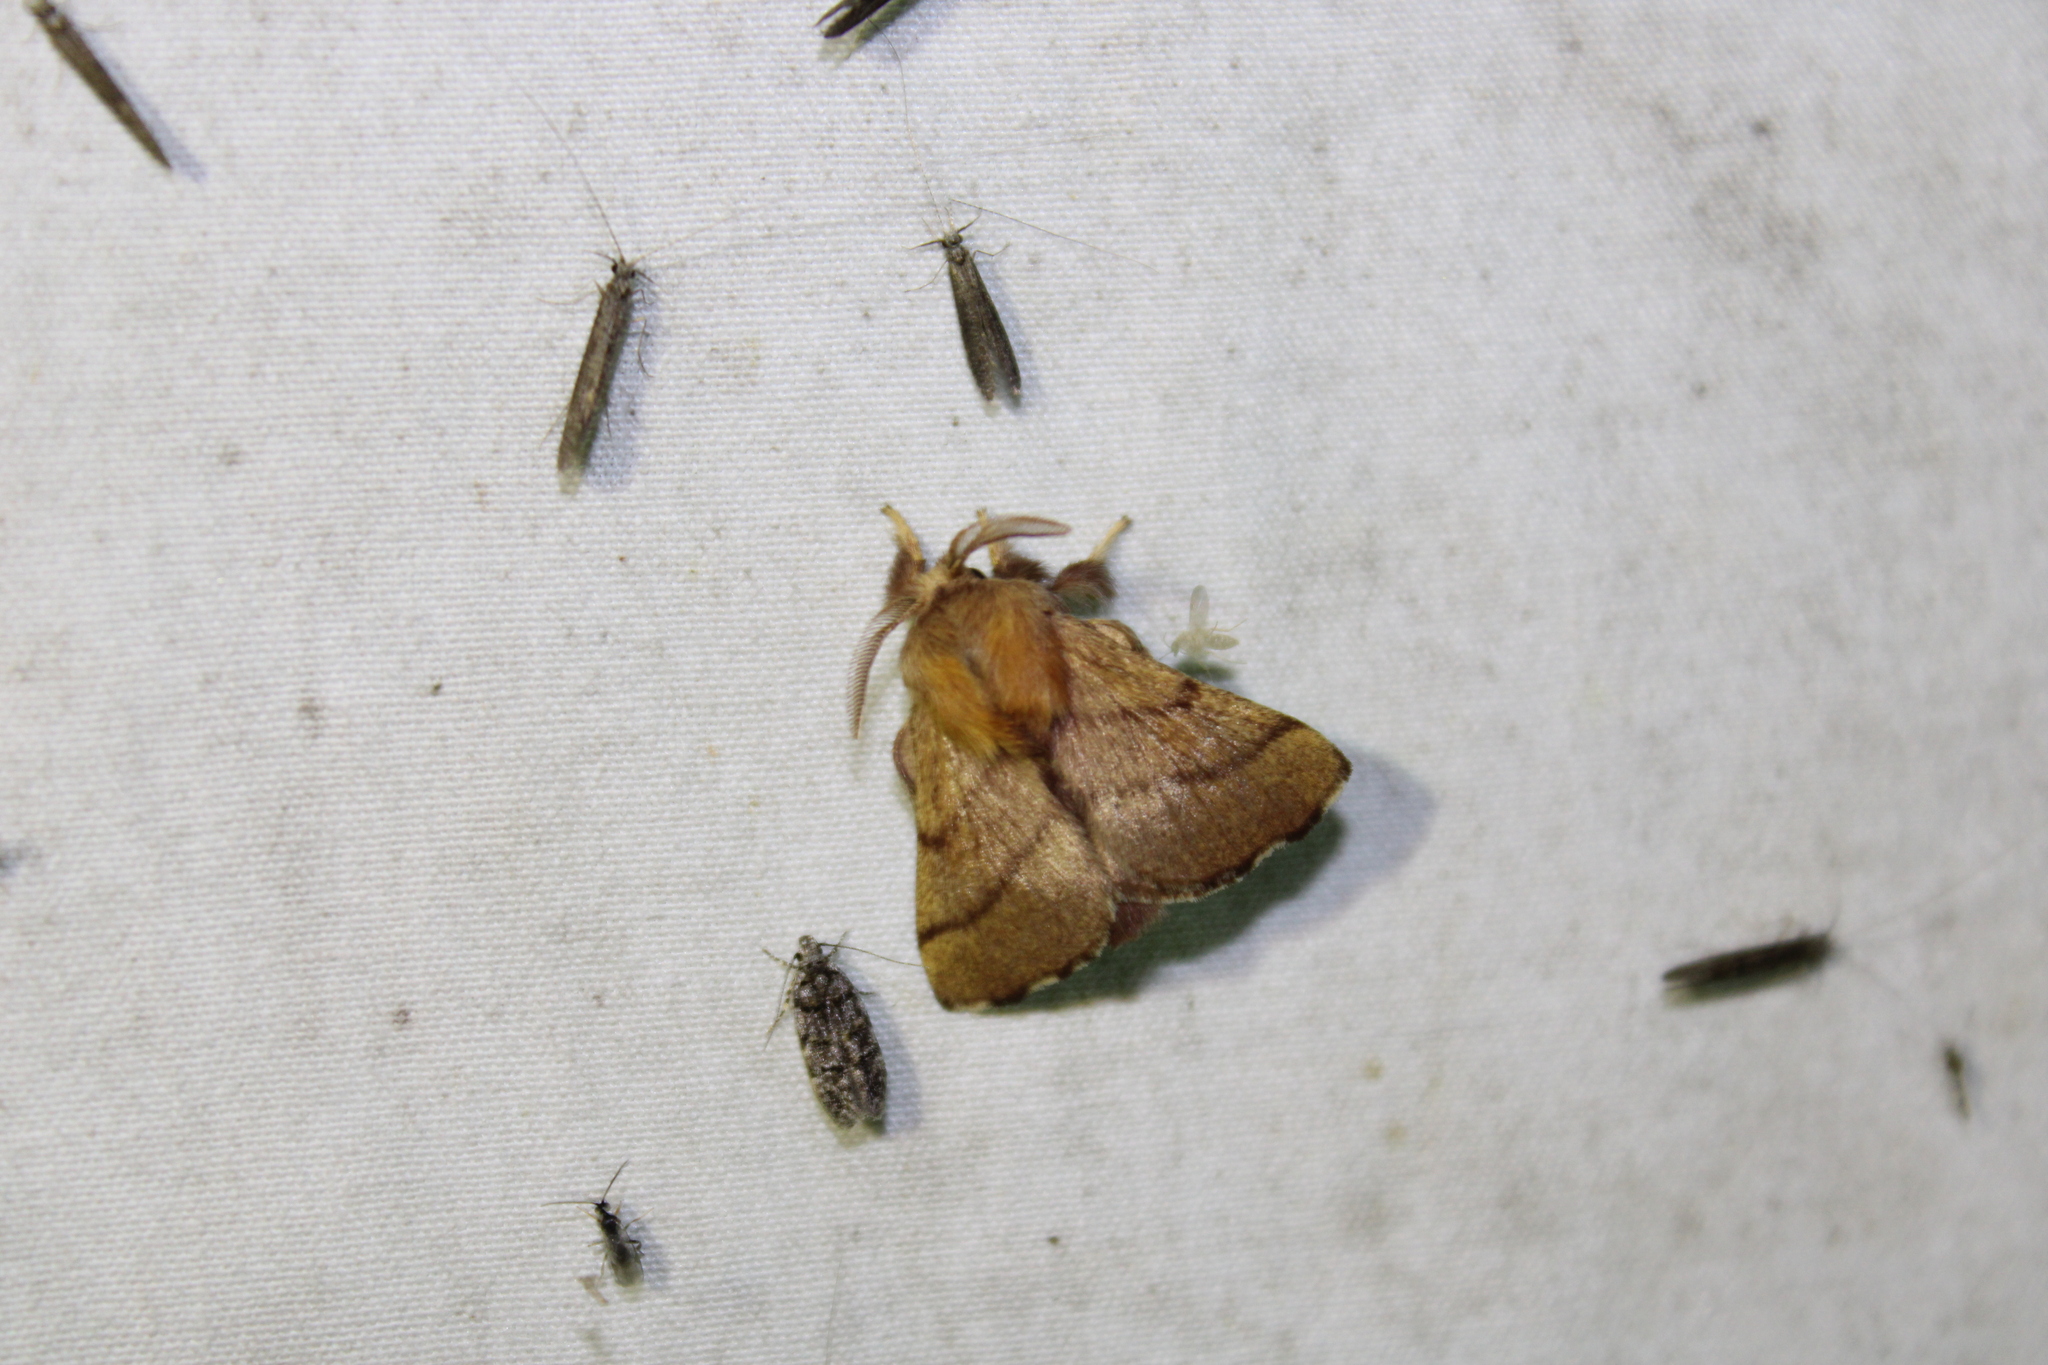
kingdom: Animalia
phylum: Arthropoda
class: Insecta
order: Lepidoptera
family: Lasiocampidae
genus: Malacosoma
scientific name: Malacosoma disstria
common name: Forest tent caterpillar
